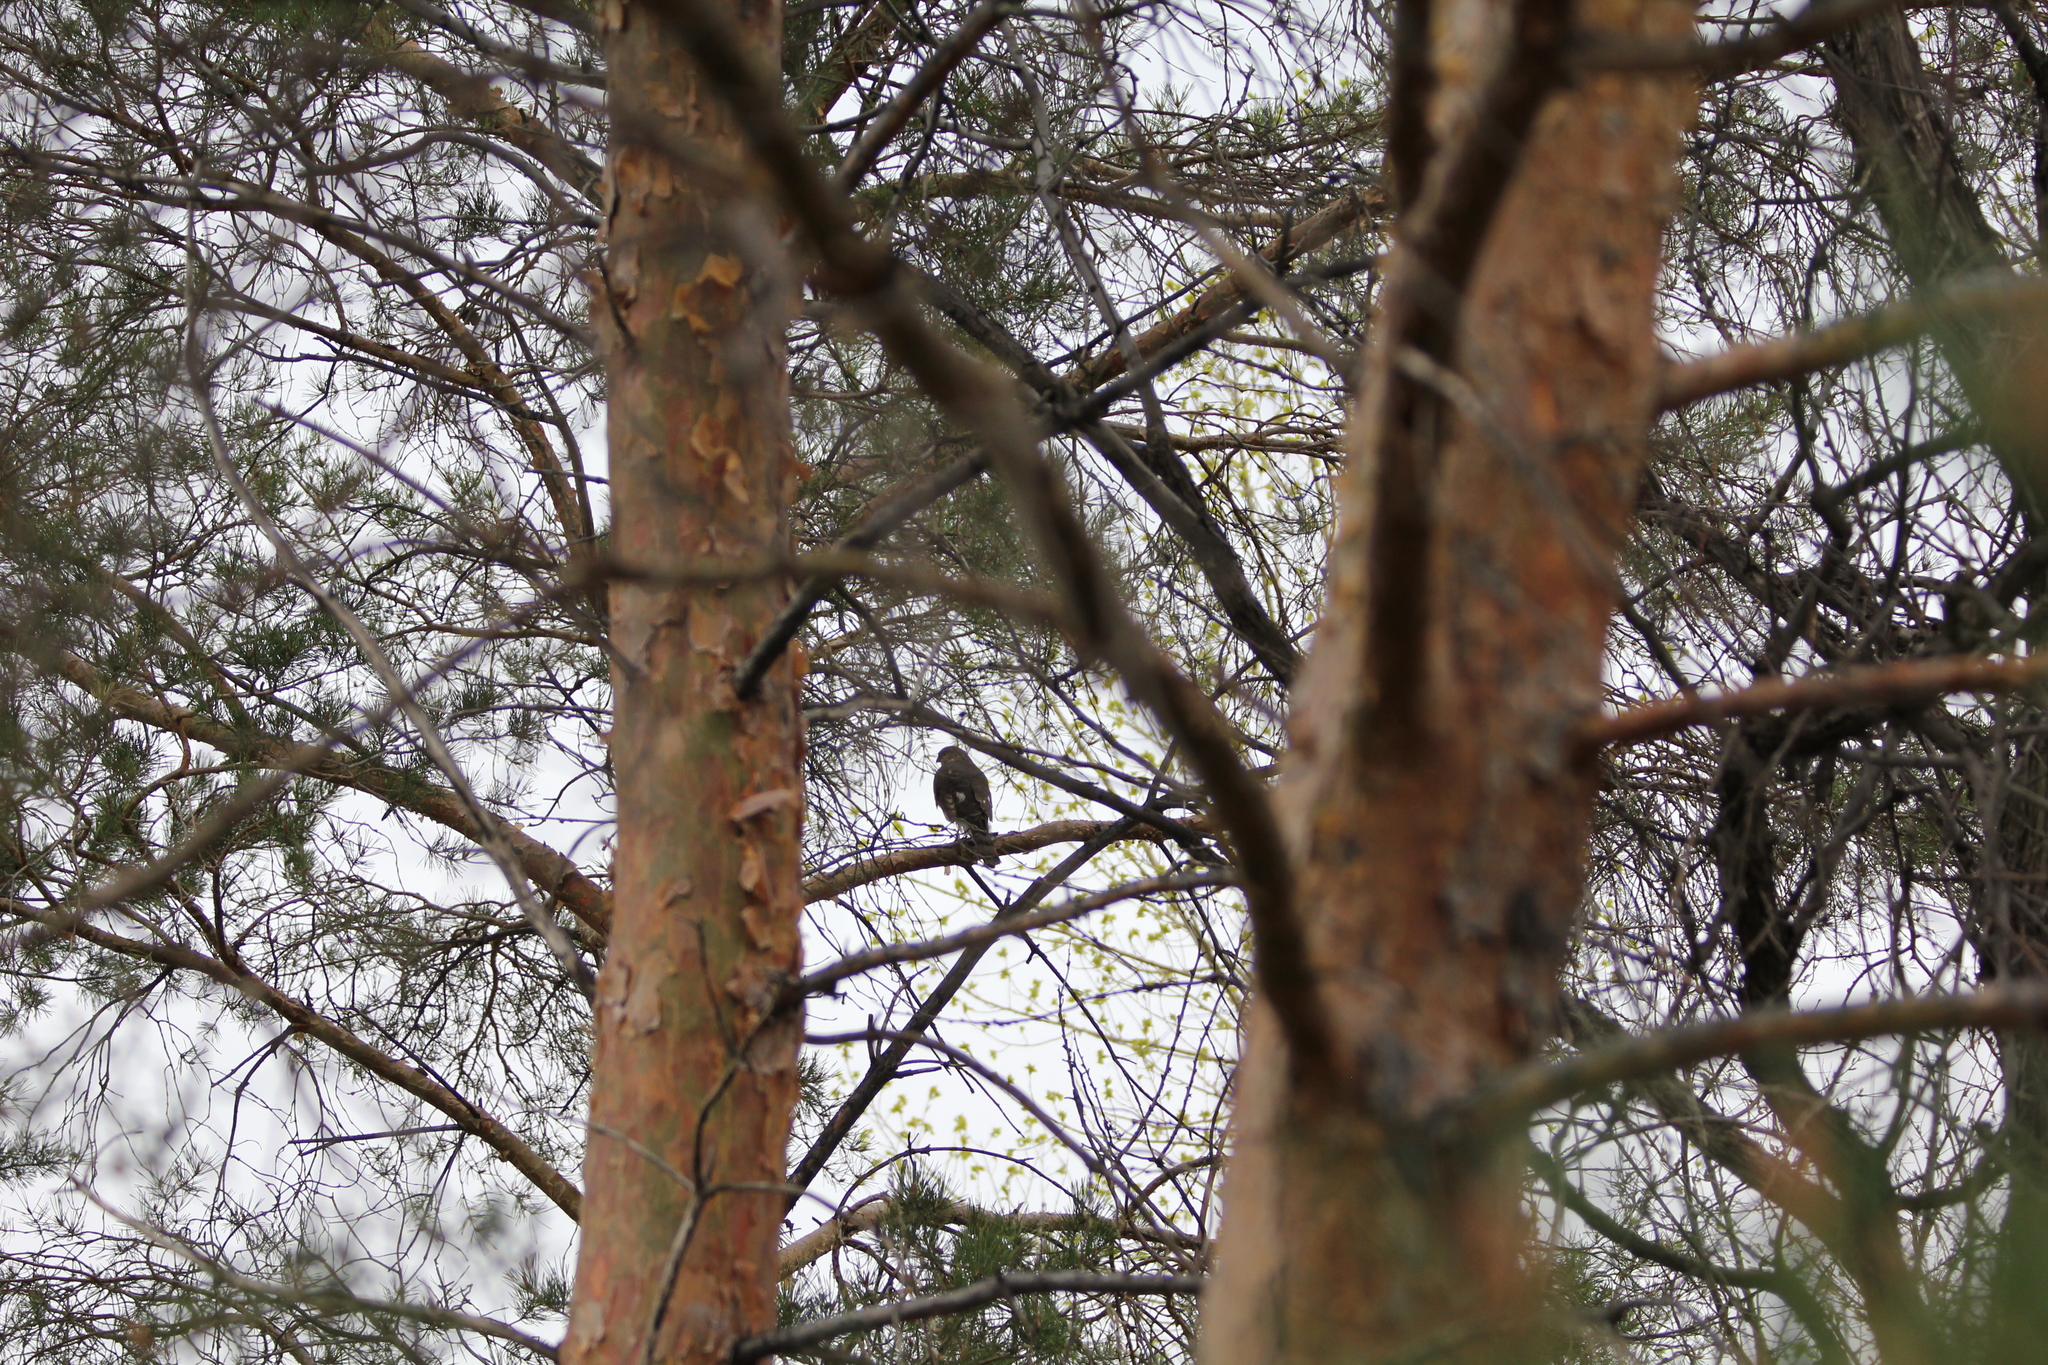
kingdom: Animalia
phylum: Chordata
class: Aves
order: Falconiformes
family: Falconidae
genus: Falco
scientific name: Falco columbarius
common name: Merlin
